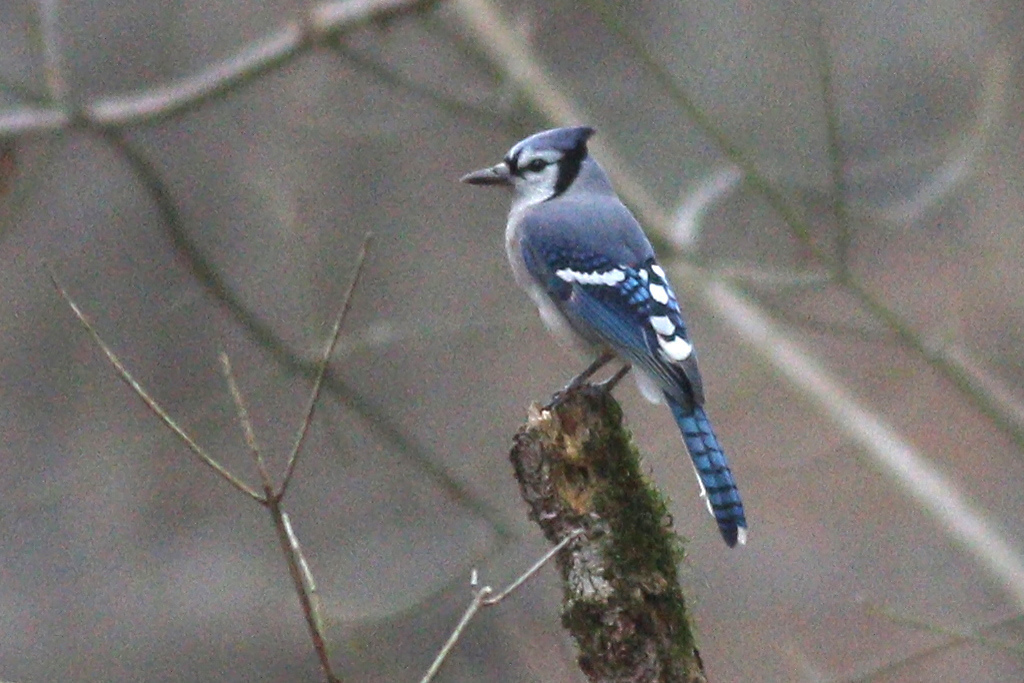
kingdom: Animalia
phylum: Chordata
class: Aves
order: Passeriformes
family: Corvidae
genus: Cyanocitta
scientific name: Cyanocitta cristata
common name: Blue jay
